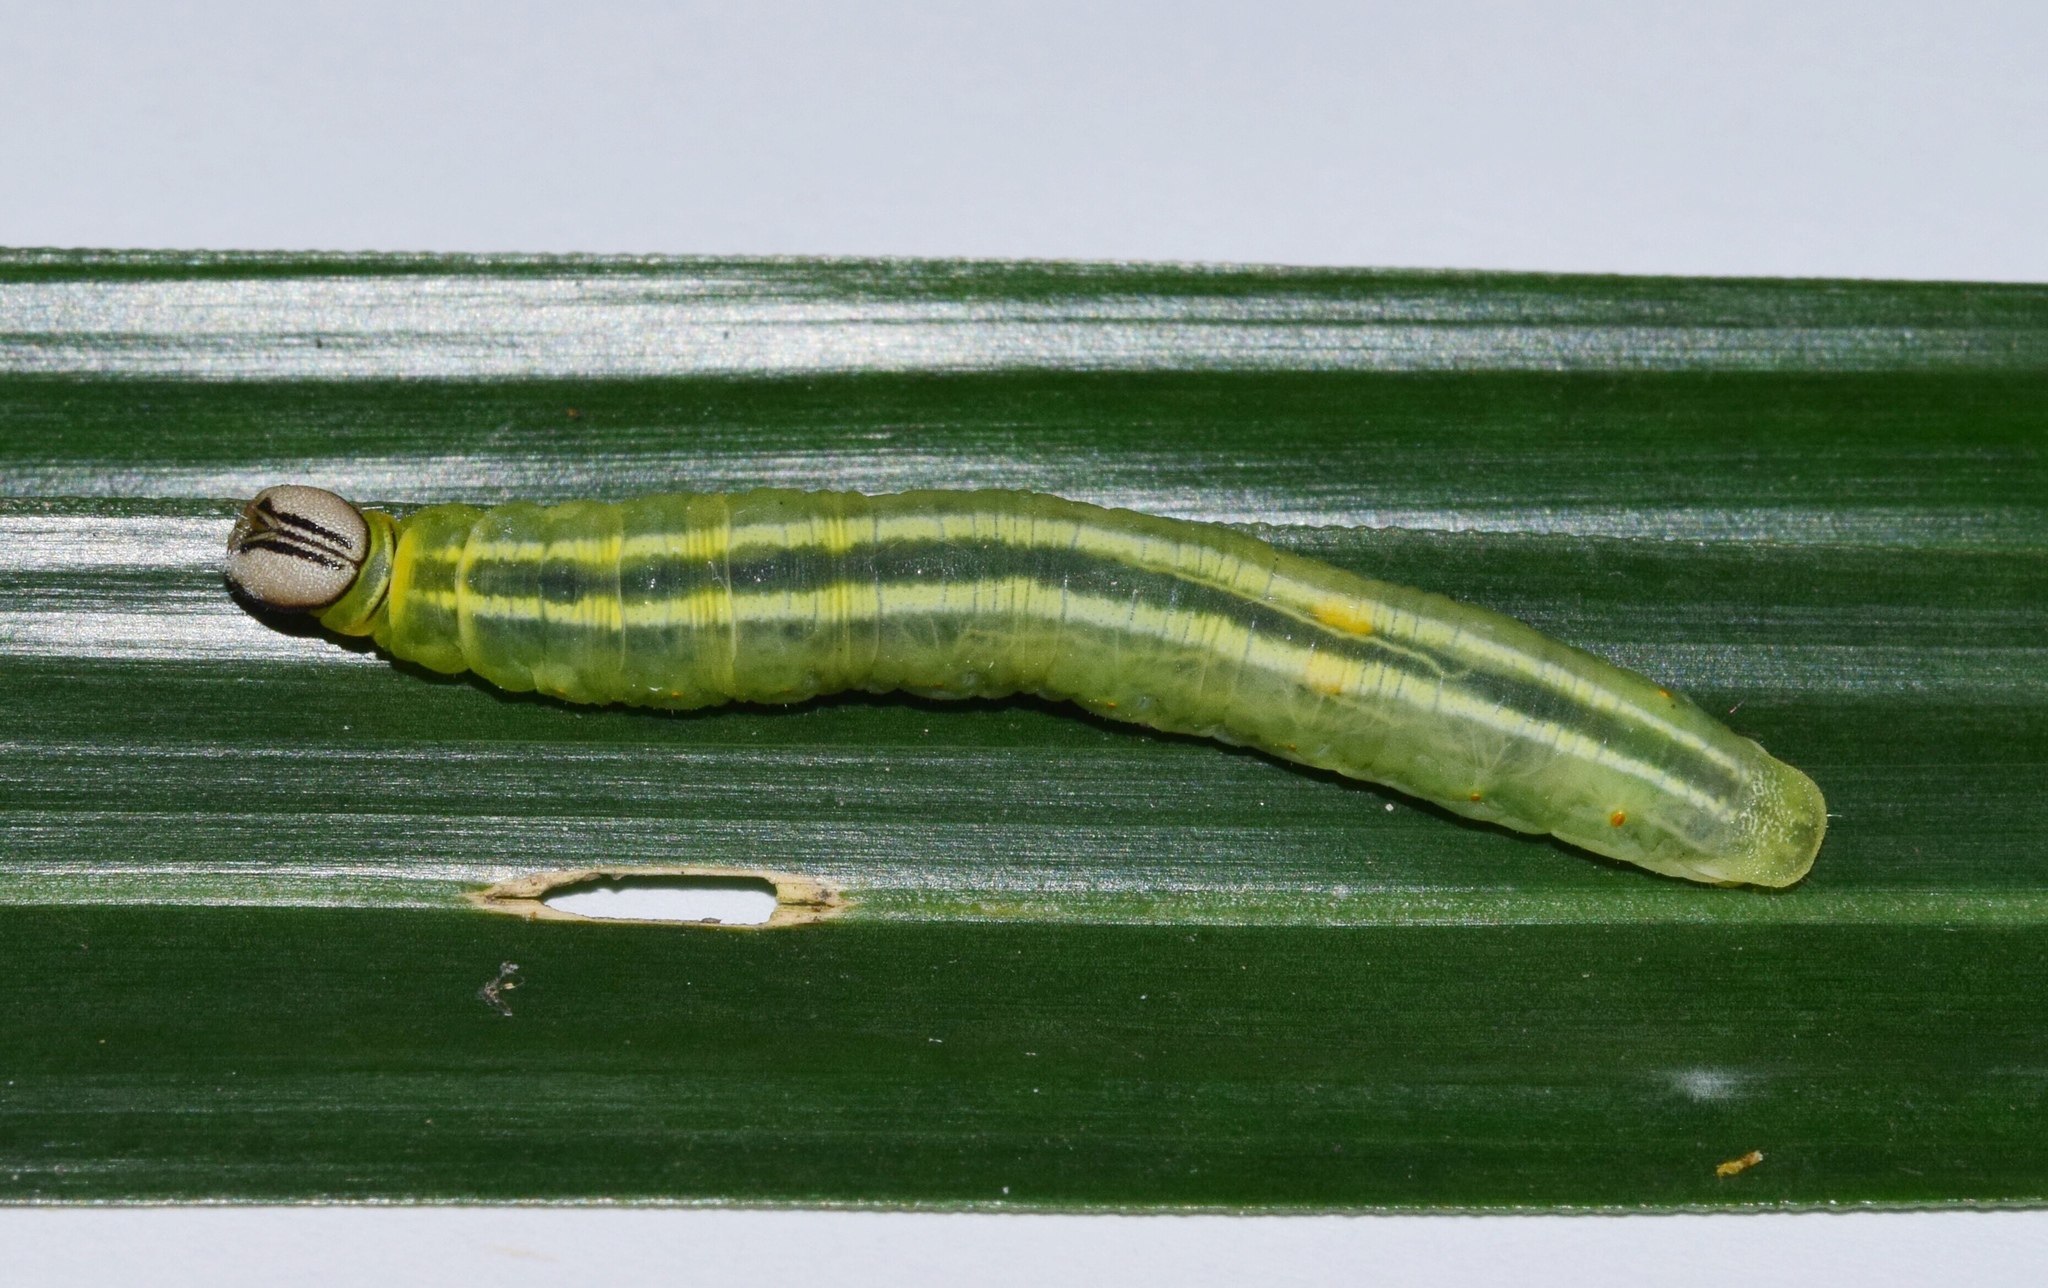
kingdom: Animalia
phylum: Arthropoda
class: Insecta
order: Lepidoptera
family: Hesperiidae
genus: Zophopetes
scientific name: Zophopetes dysmephila
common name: Palm-tree nightfighter
